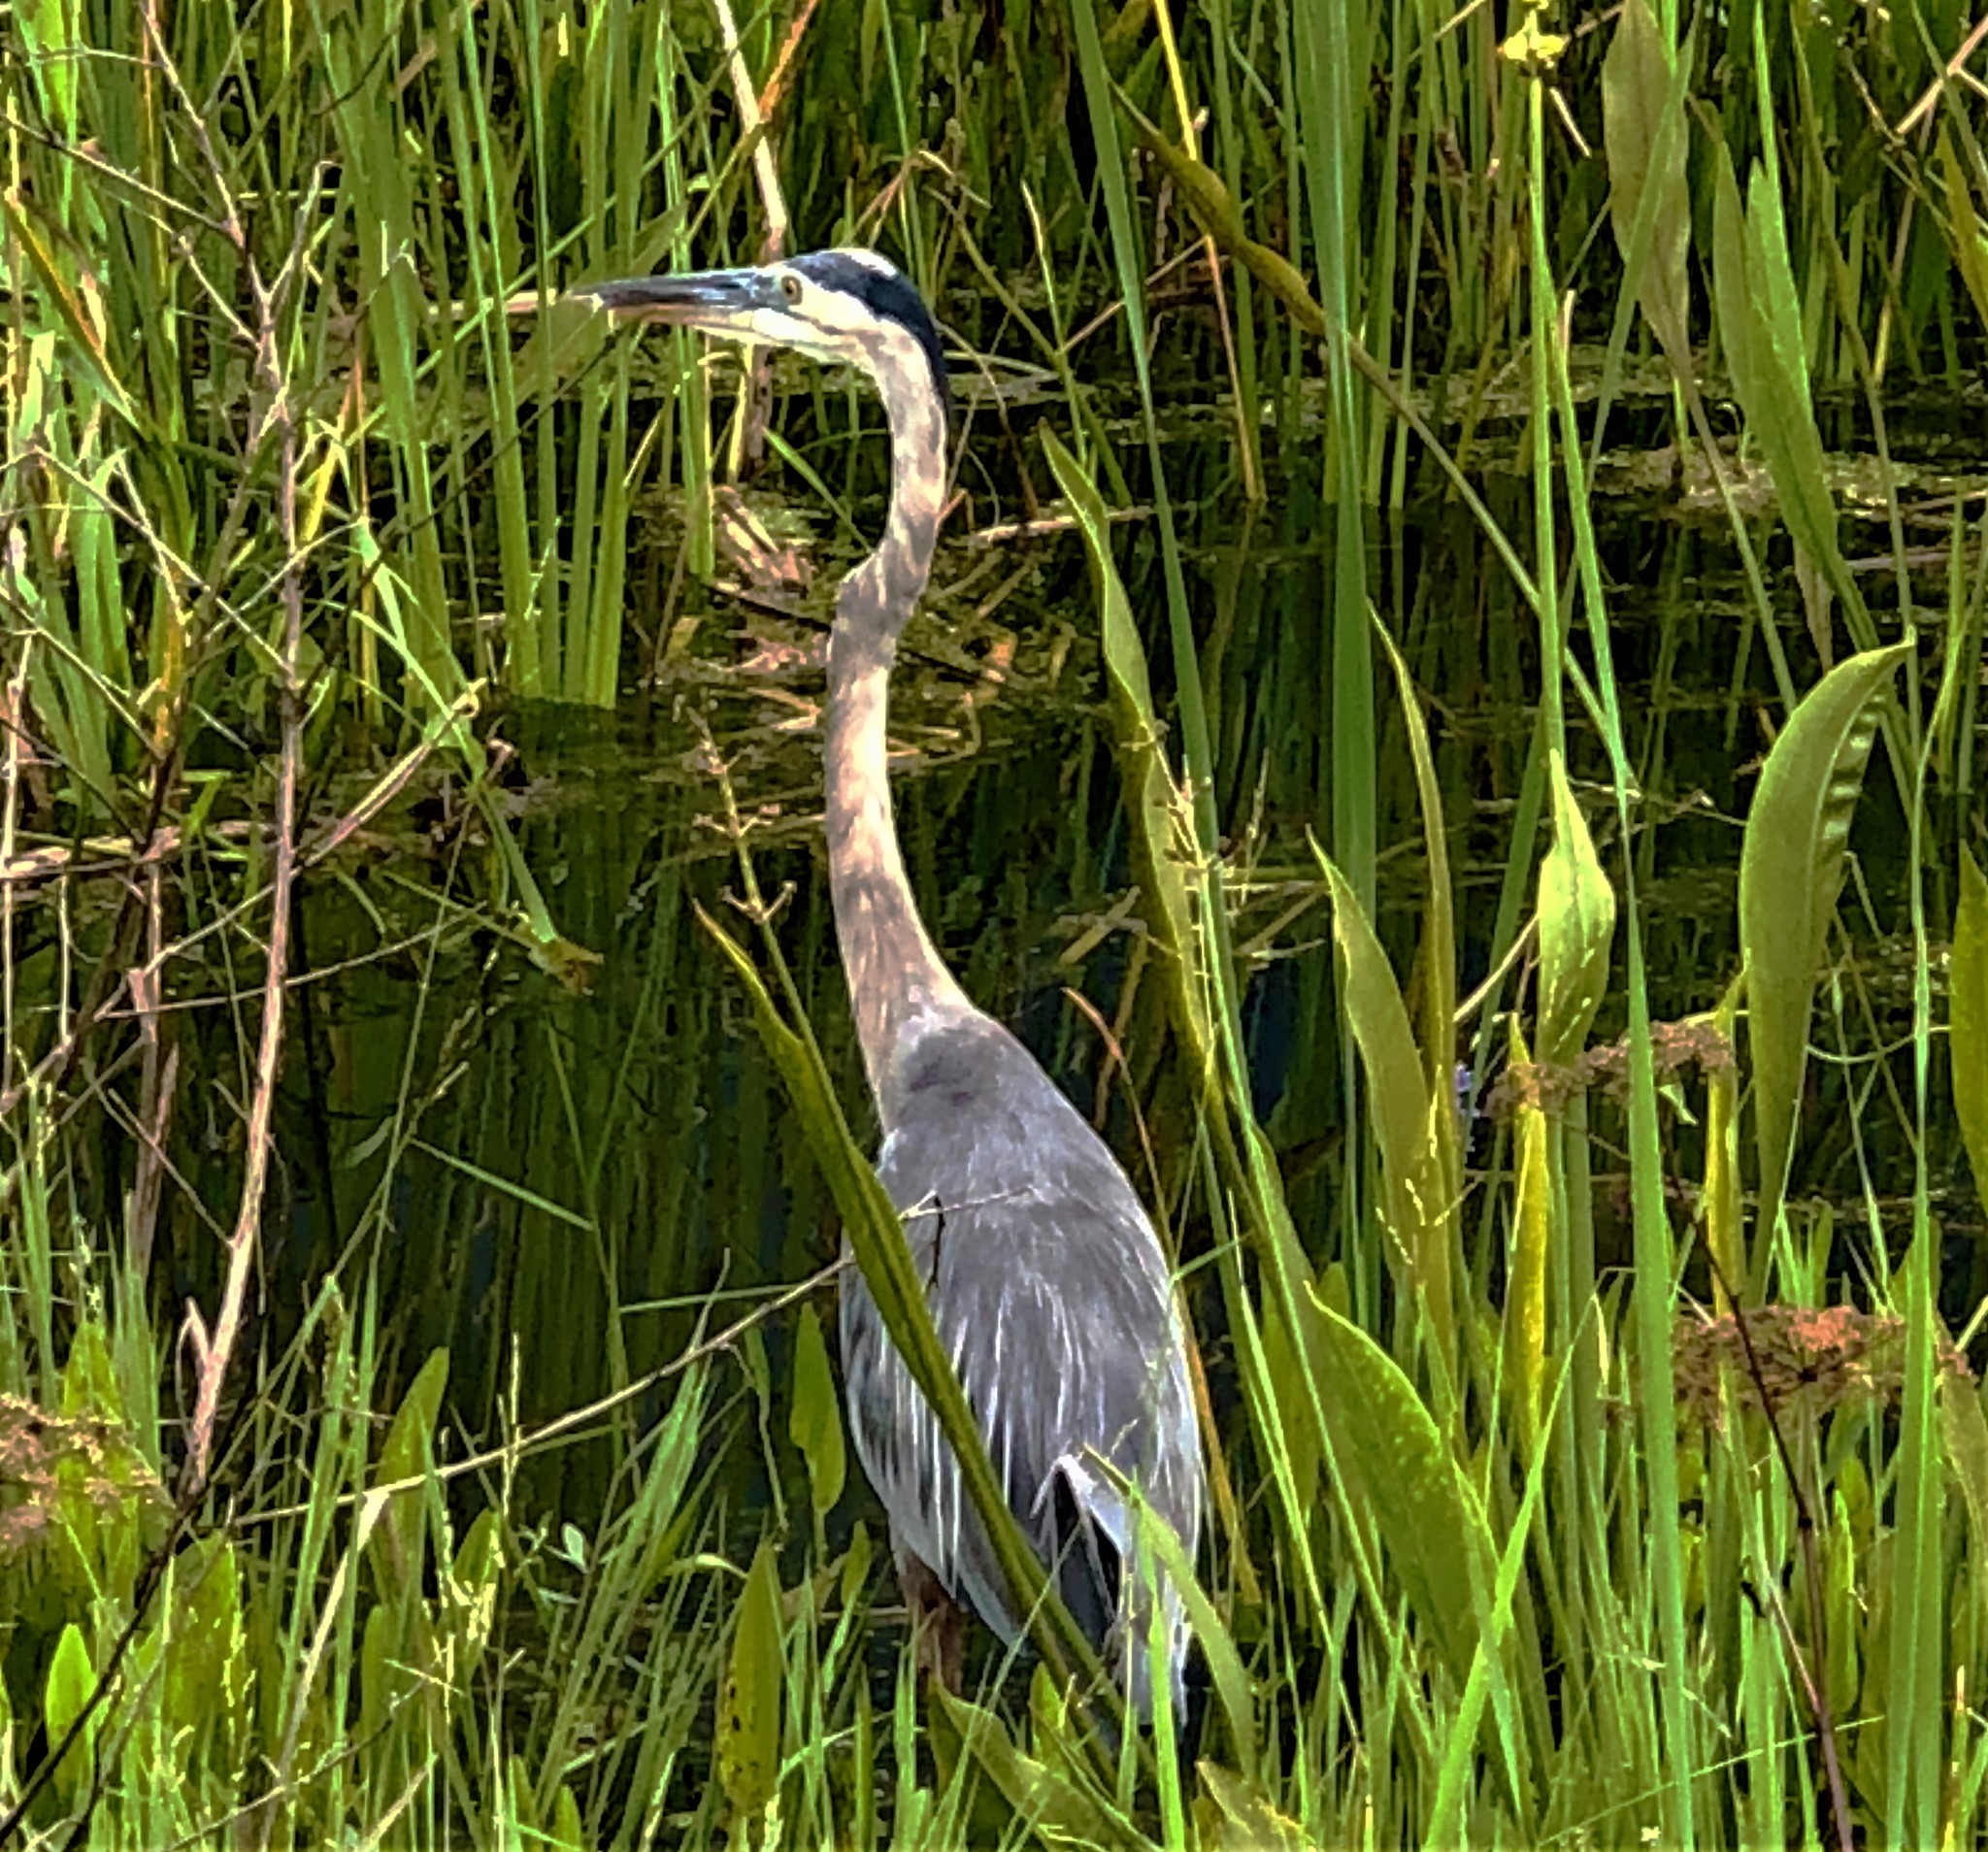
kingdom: Animalia
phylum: Chordata
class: Aves
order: Pelecaniformes
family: Ardeidae
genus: Ardea
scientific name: Ardea herodias
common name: Great blue heron
